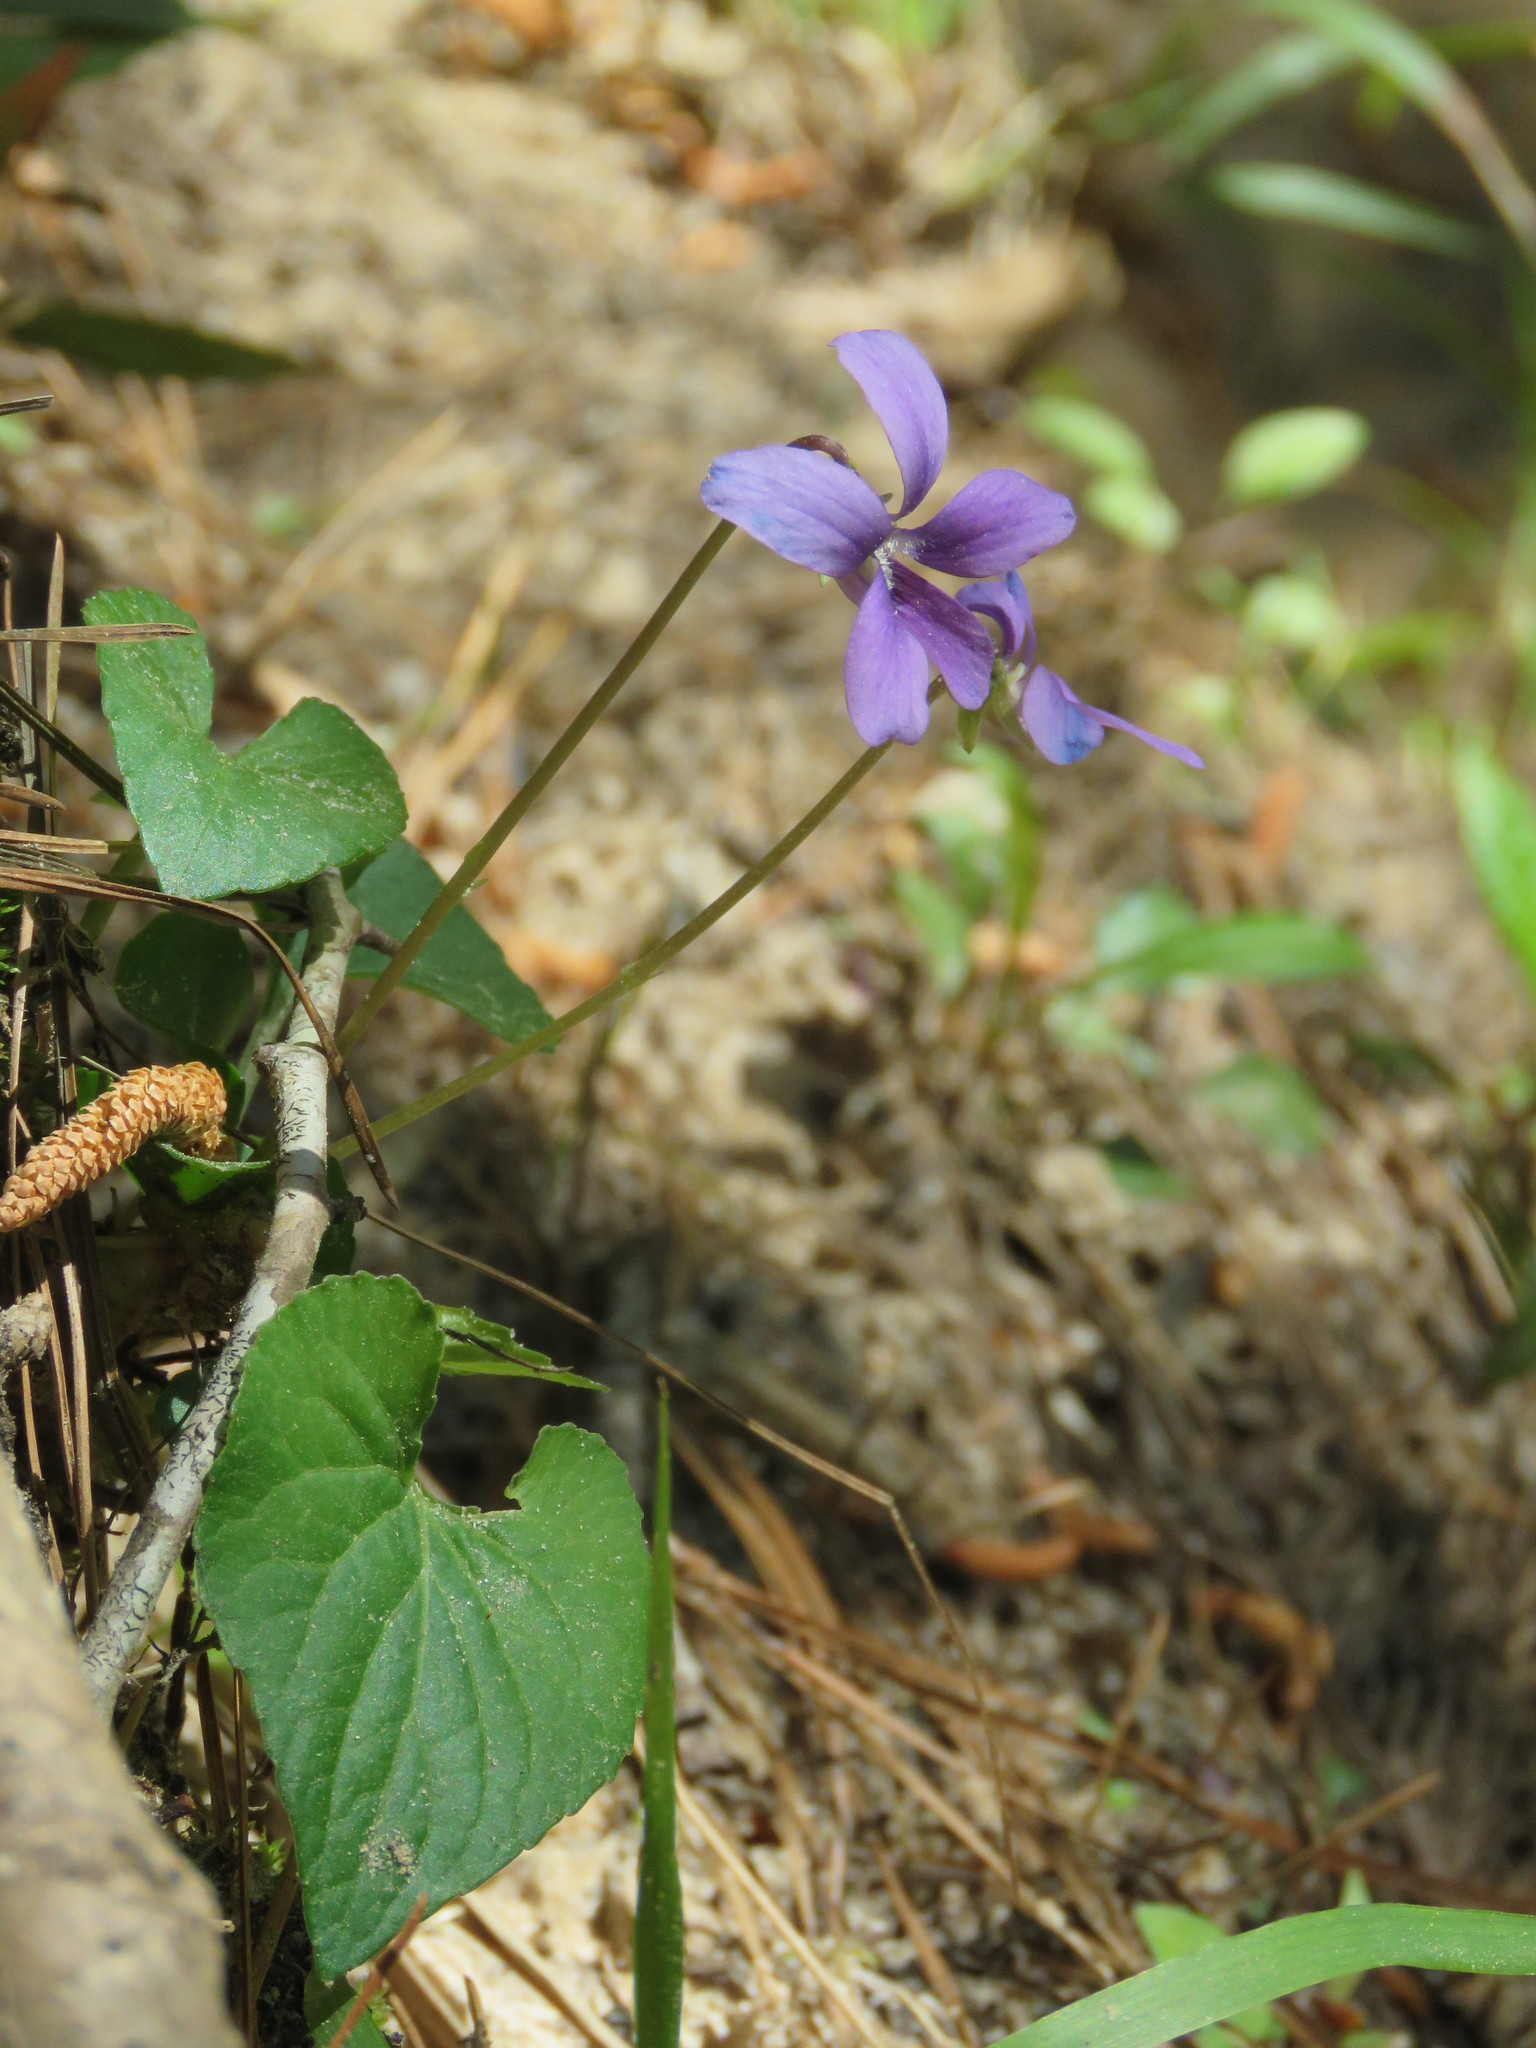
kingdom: Plantae
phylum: Tracheophyta
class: Magnoliopsida
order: Malpighiales
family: Violaceae
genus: Viola
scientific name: Viola sororia
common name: Dooryard violet
